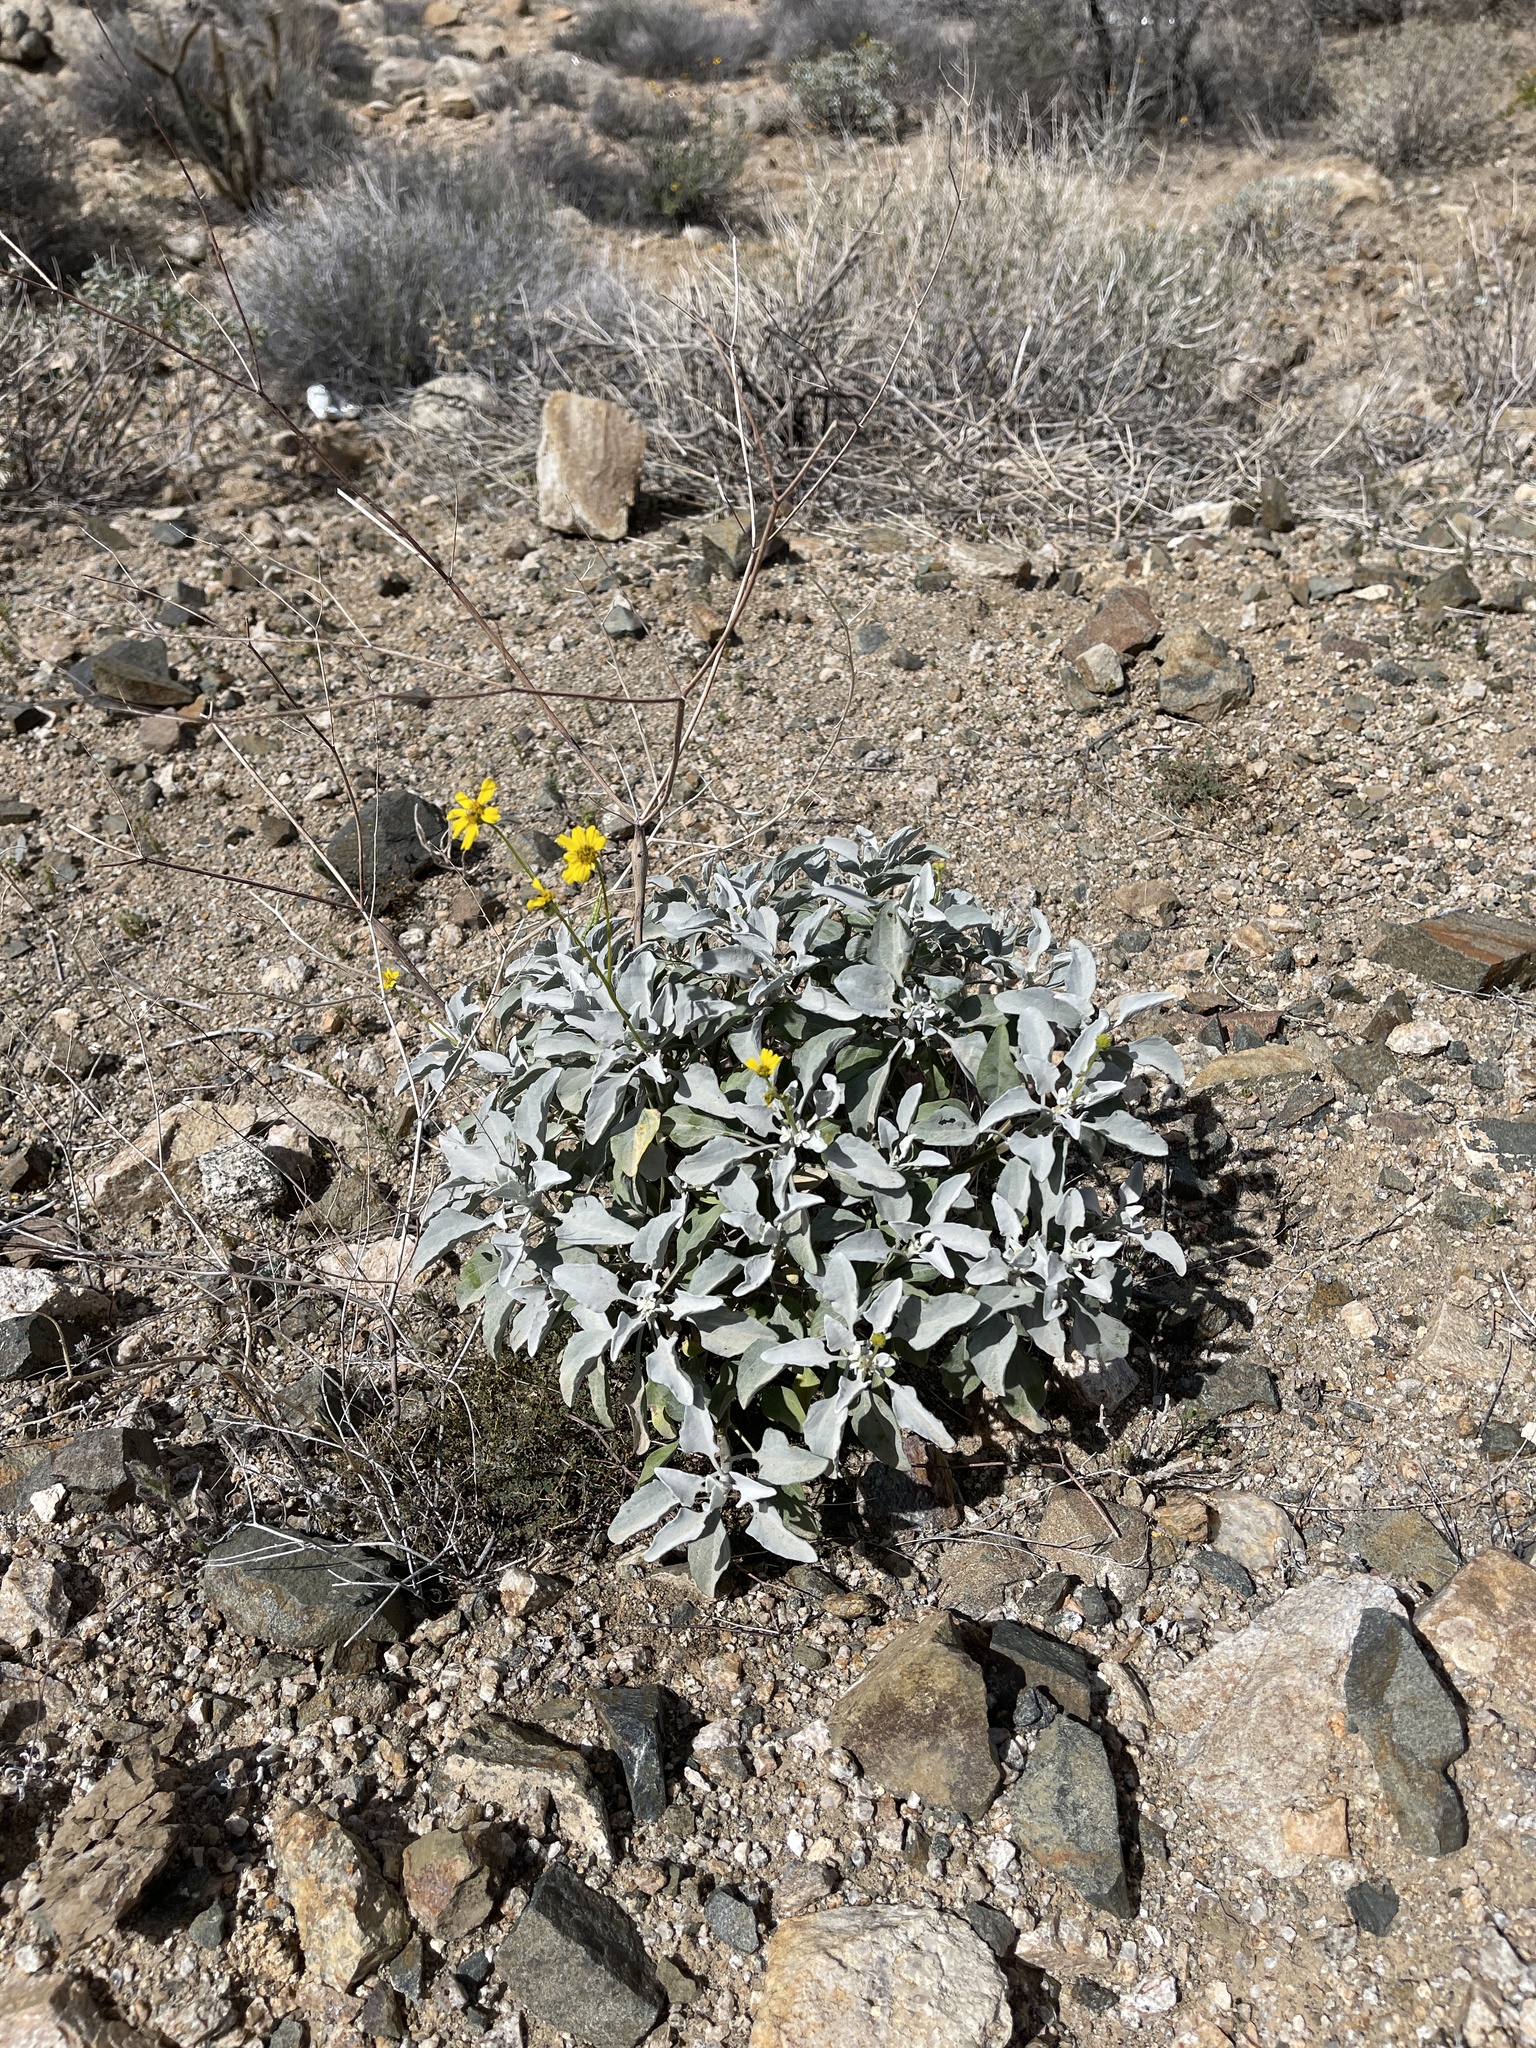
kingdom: Plantae
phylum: Tracheophyta
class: Magnoliopsida
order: Asterales
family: Asteraceae
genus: Encelia
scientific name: Encelia farinosa
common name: Brittlebush
